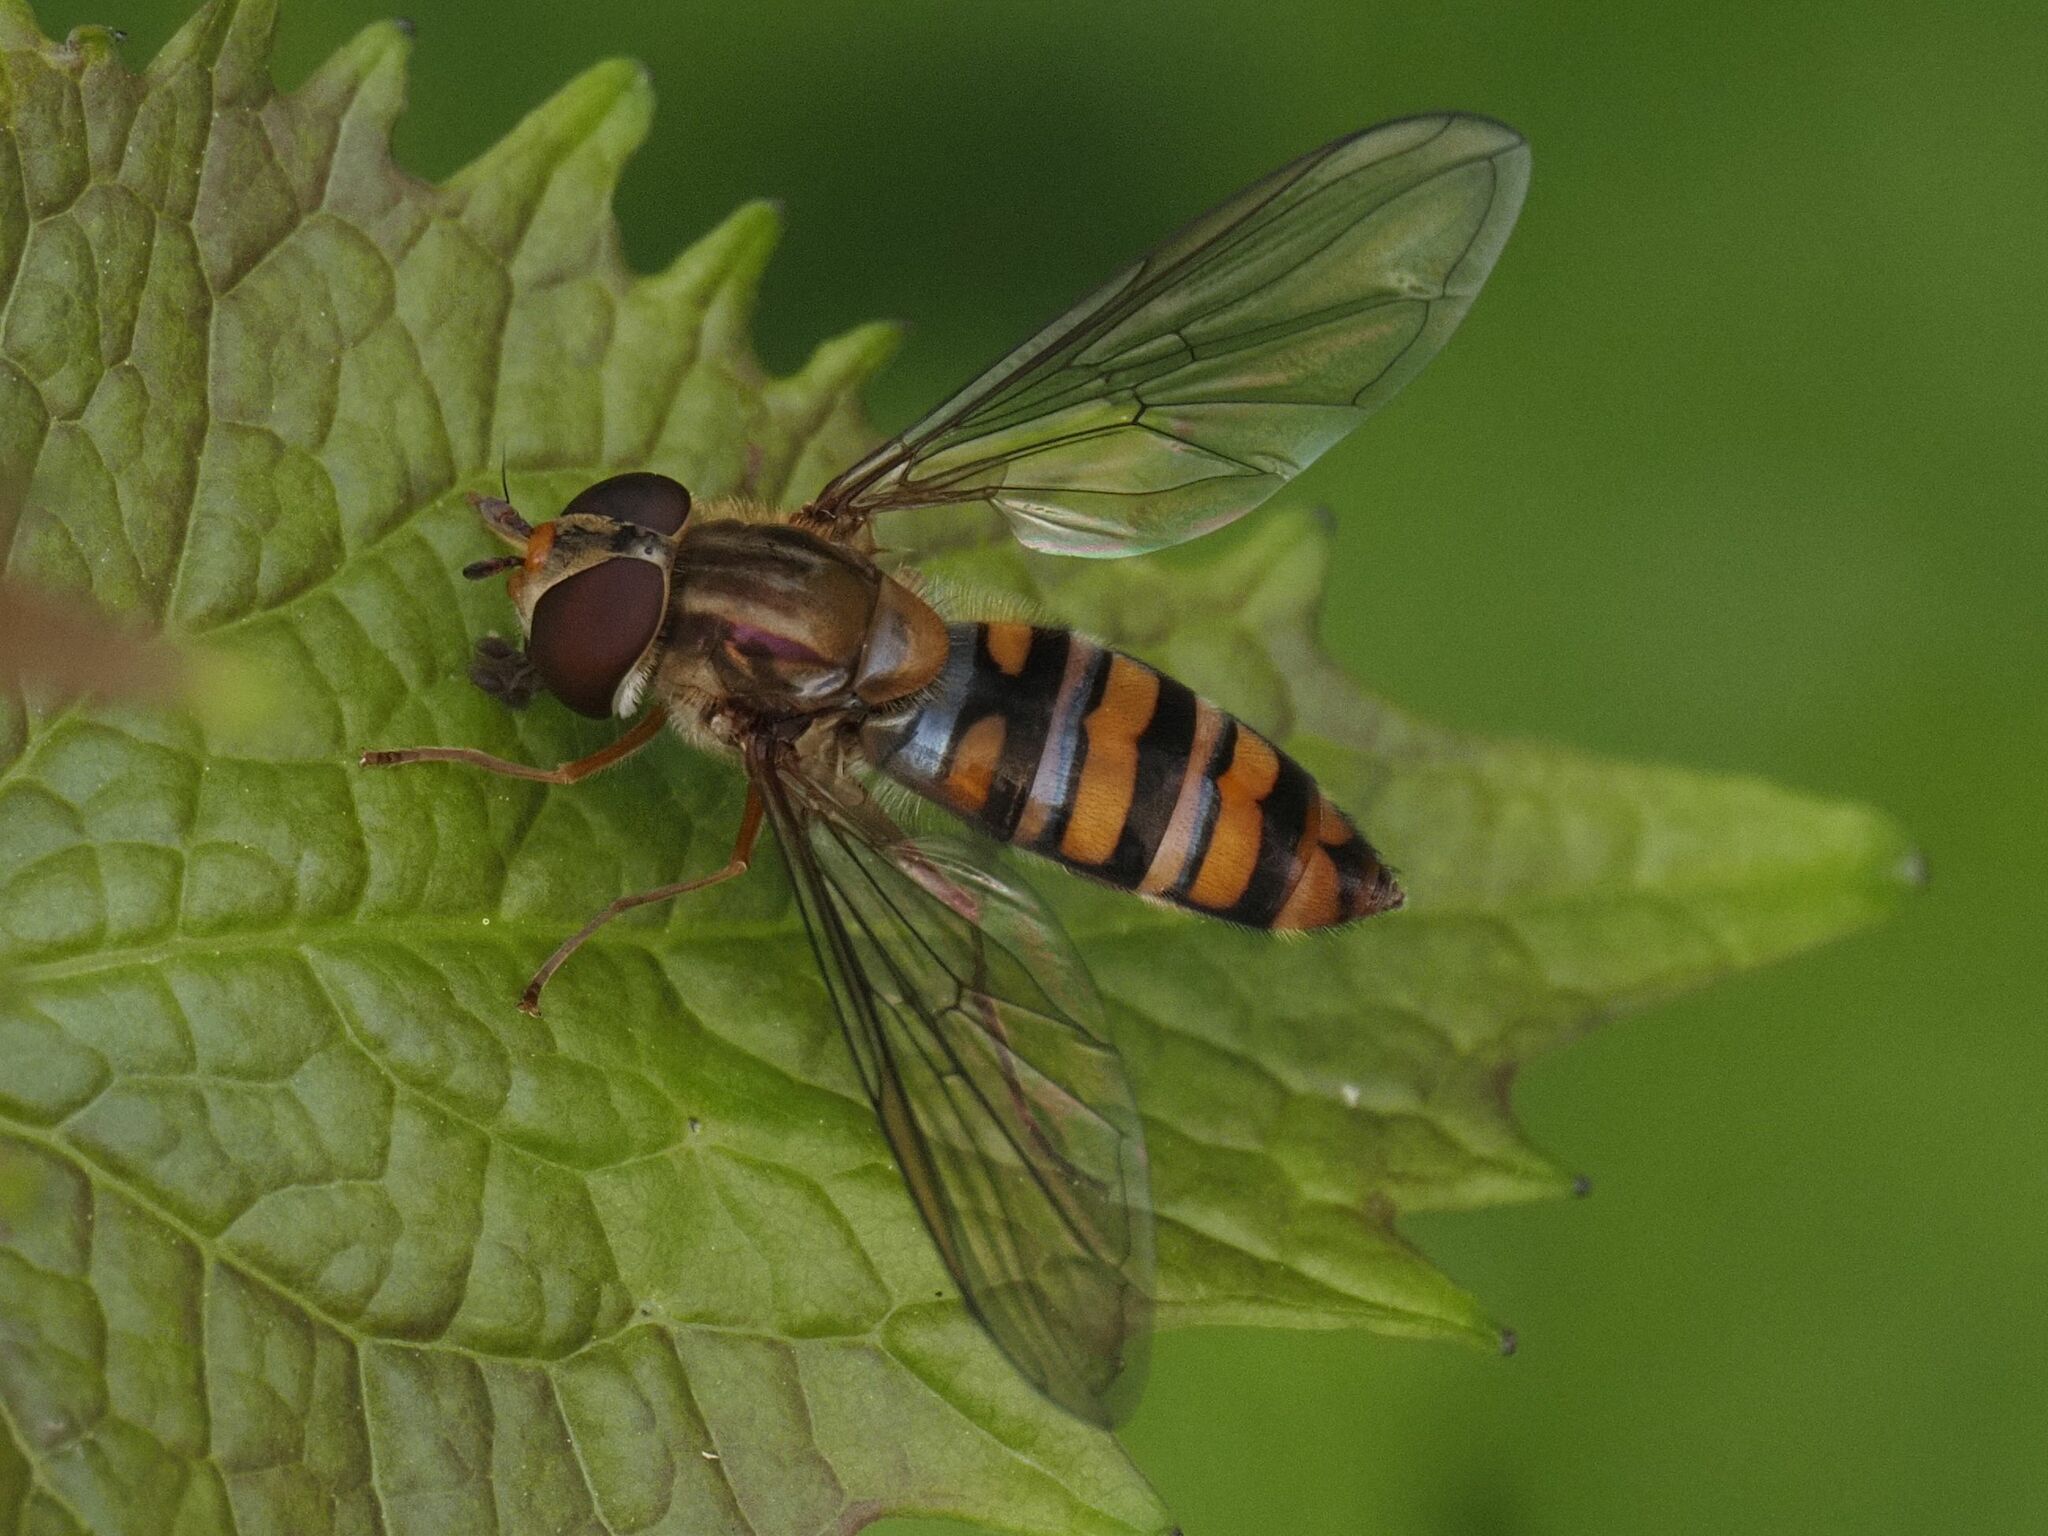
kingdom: Animalia
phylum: Arthropoda
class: Insecta
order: Diptera
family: Syrphidae
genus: Episyrphus
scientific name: Episyrphus balteatus
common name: Marmalade hoverfly
